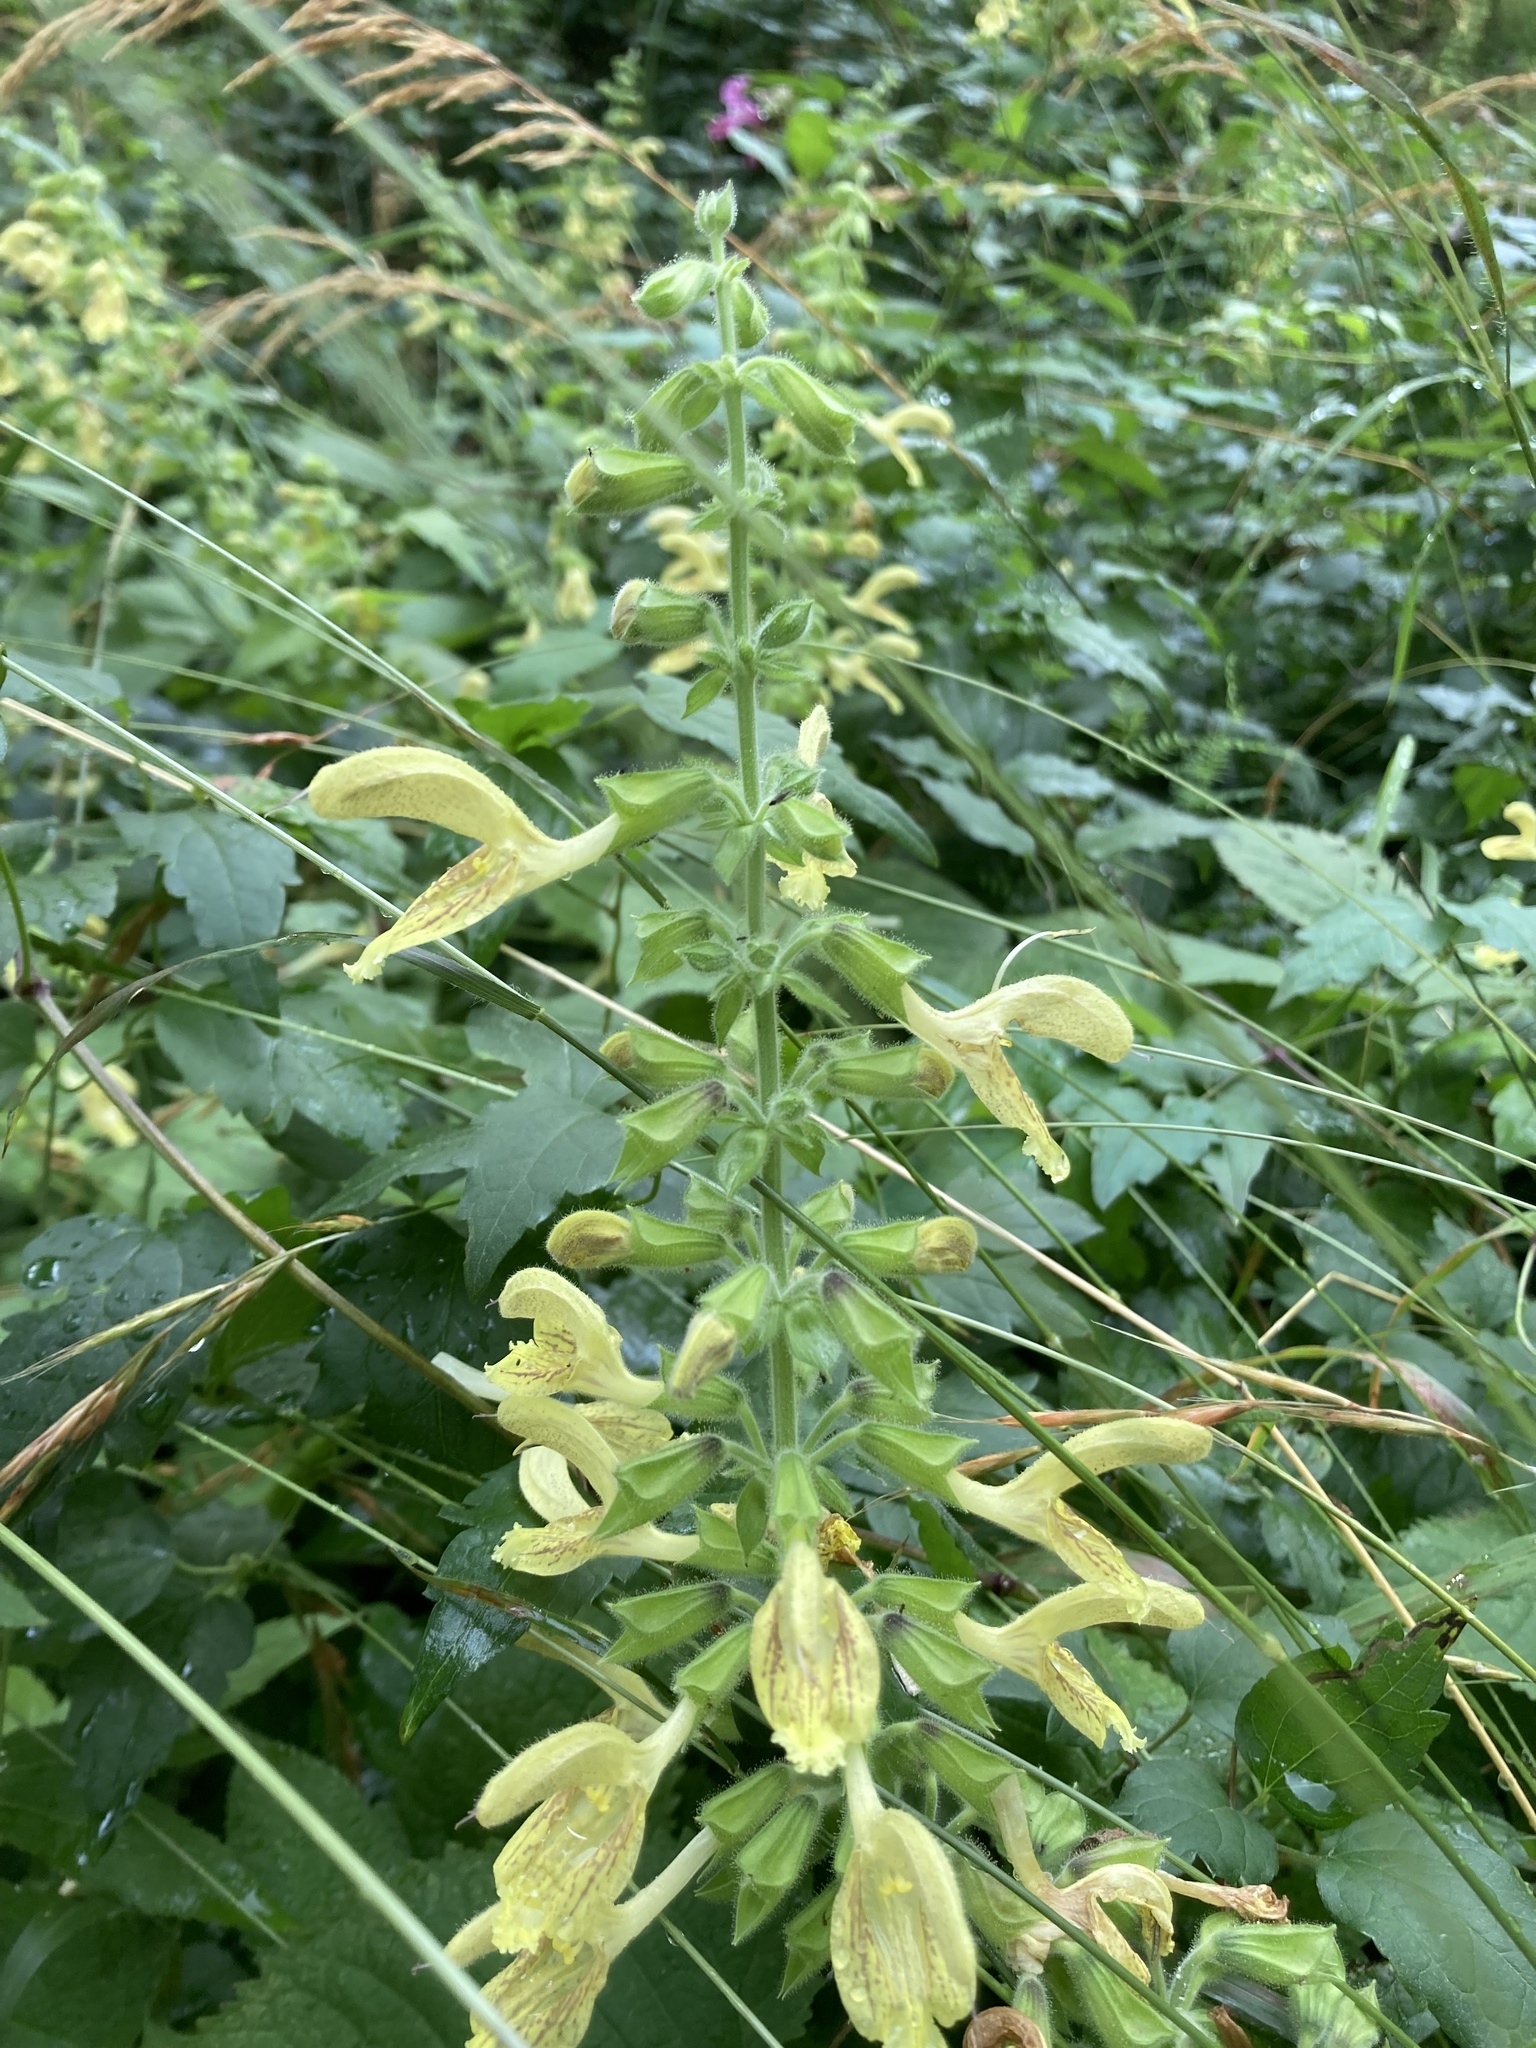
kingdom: Plantae
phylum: Tracheophyta
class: Magnoliopsida
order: Lamiales
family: Lamiaceae
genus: Salvia
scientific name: Salvia glutinosa
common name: Sticky clary
